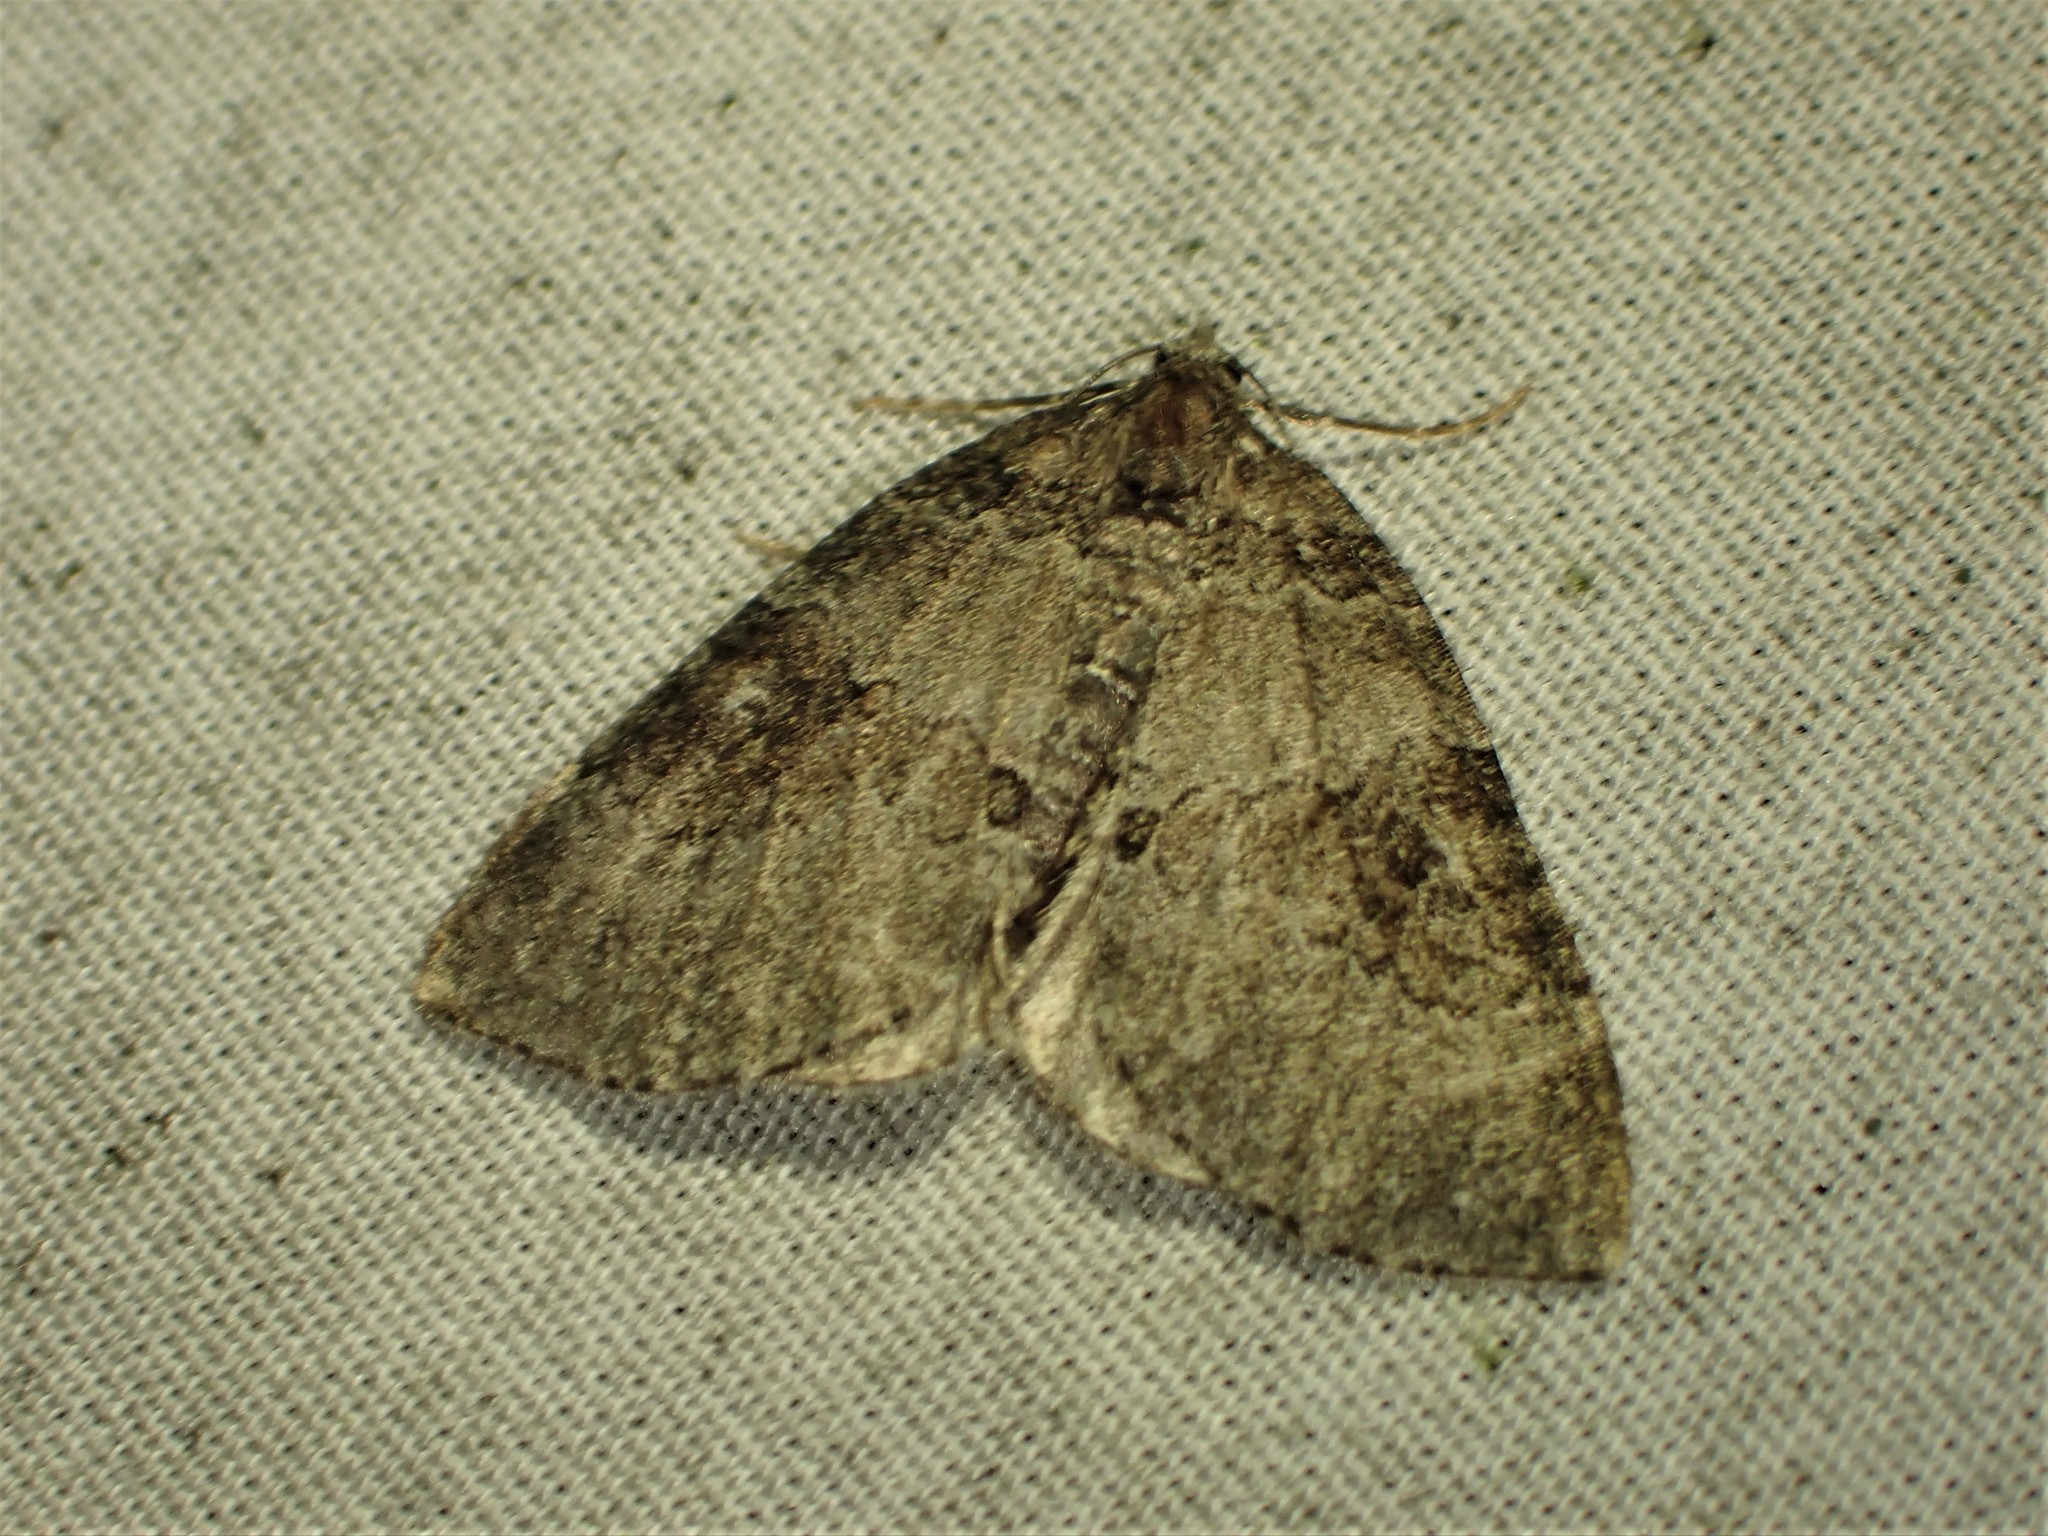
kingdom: Animalia
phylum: Arthropoda
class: Insecta
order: Lepidoptera
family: Geometridae
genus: Plemyria
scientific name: Plemyria georgii
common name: George's carpet moth
